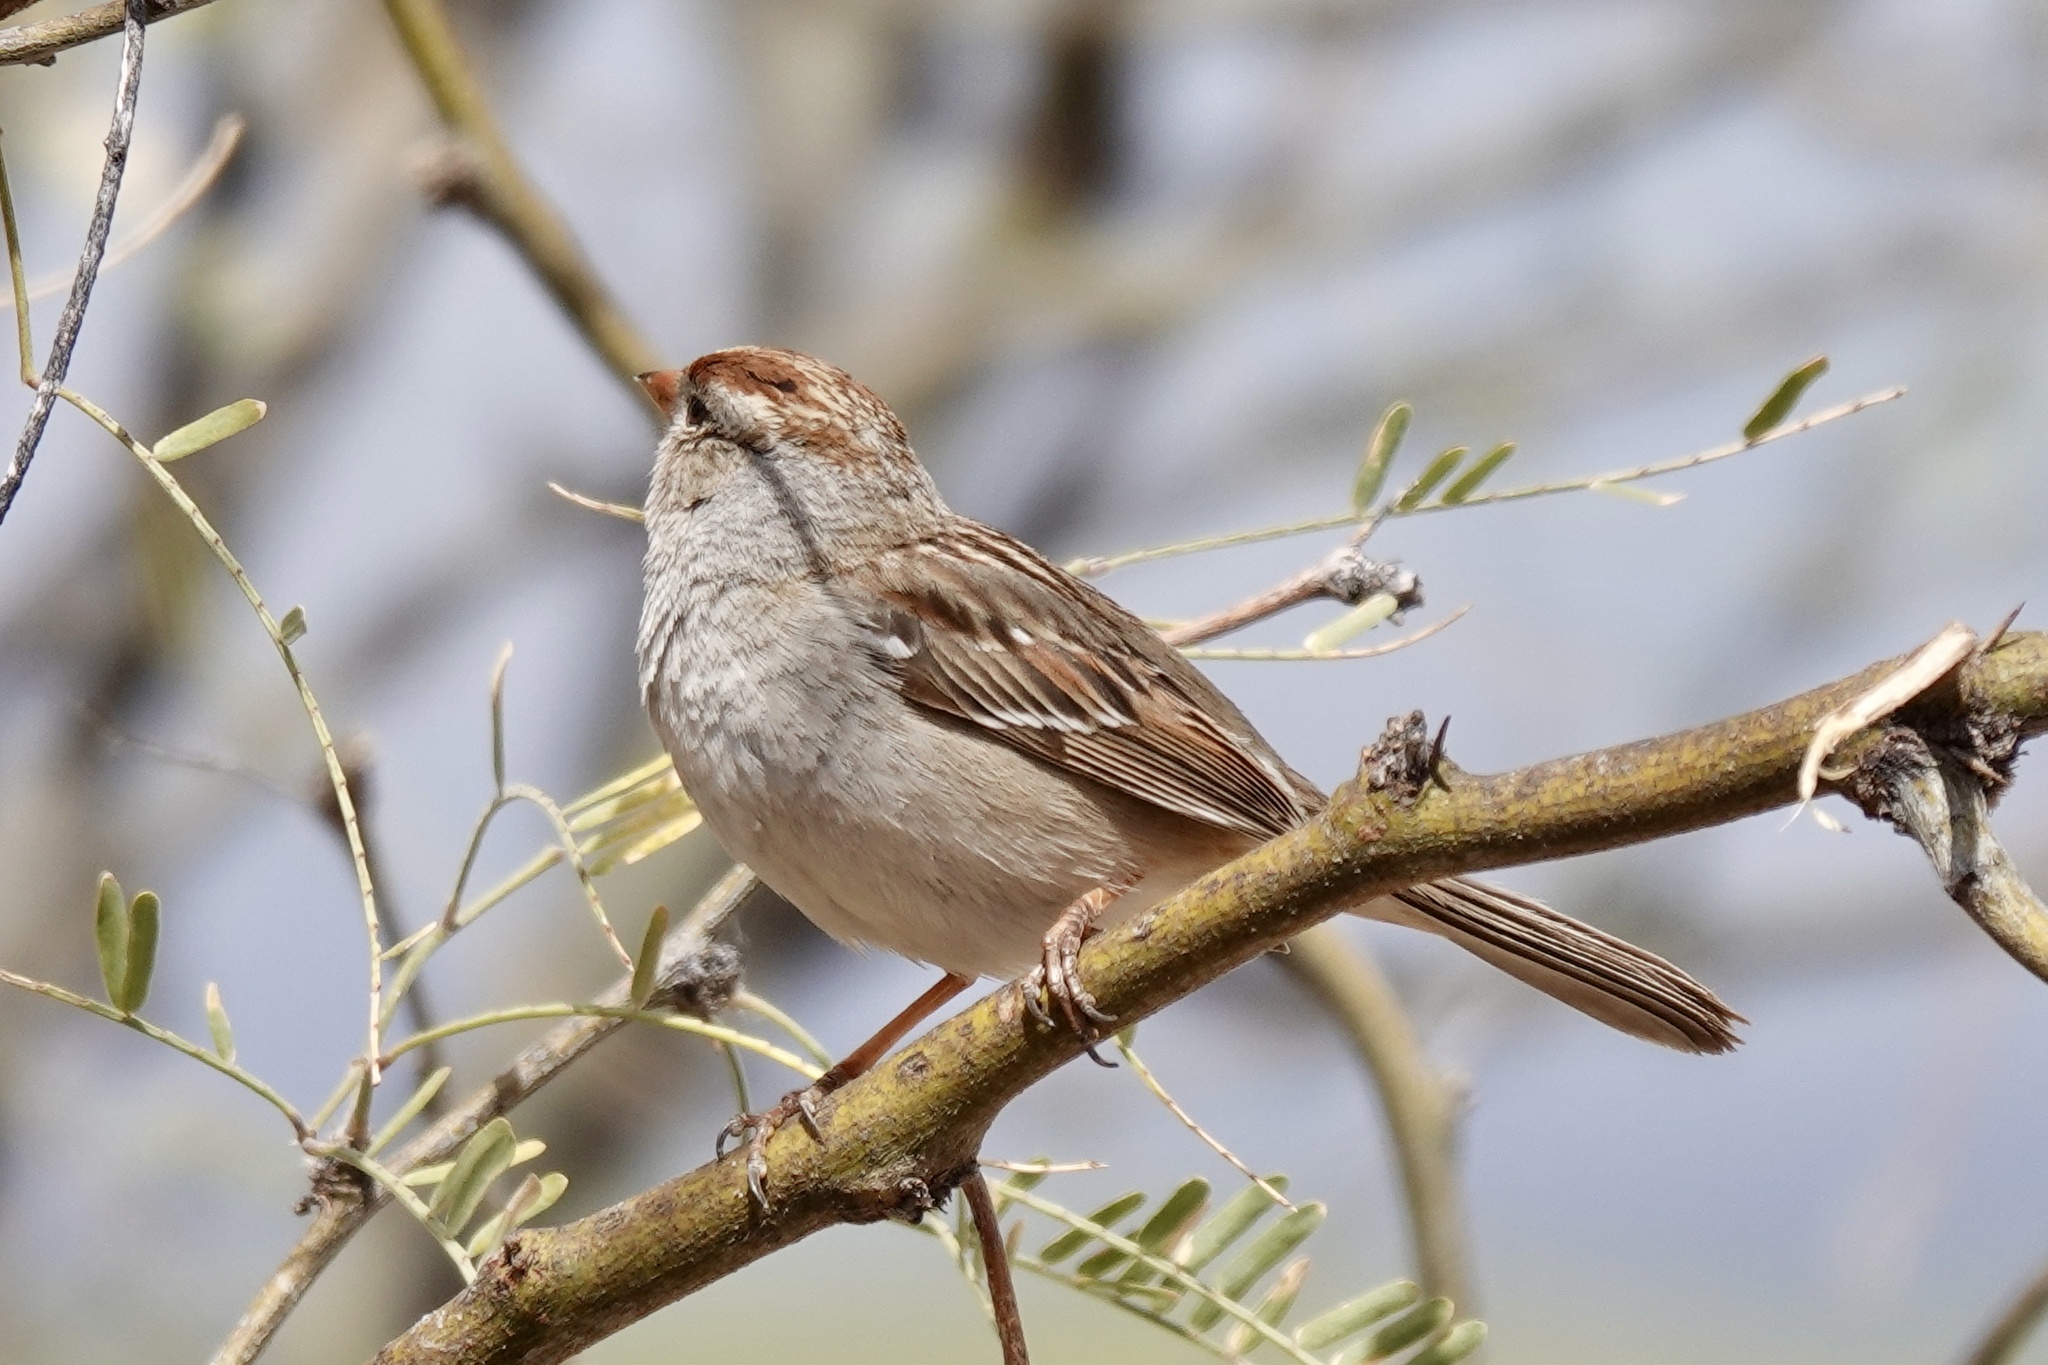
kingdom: Animalia
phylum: Chordata
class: Aves
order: Passeriformes
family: Passerellidae
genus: Zonotrichia
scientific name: Zonotrichia leucophrys
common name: White-crowned sparrow
